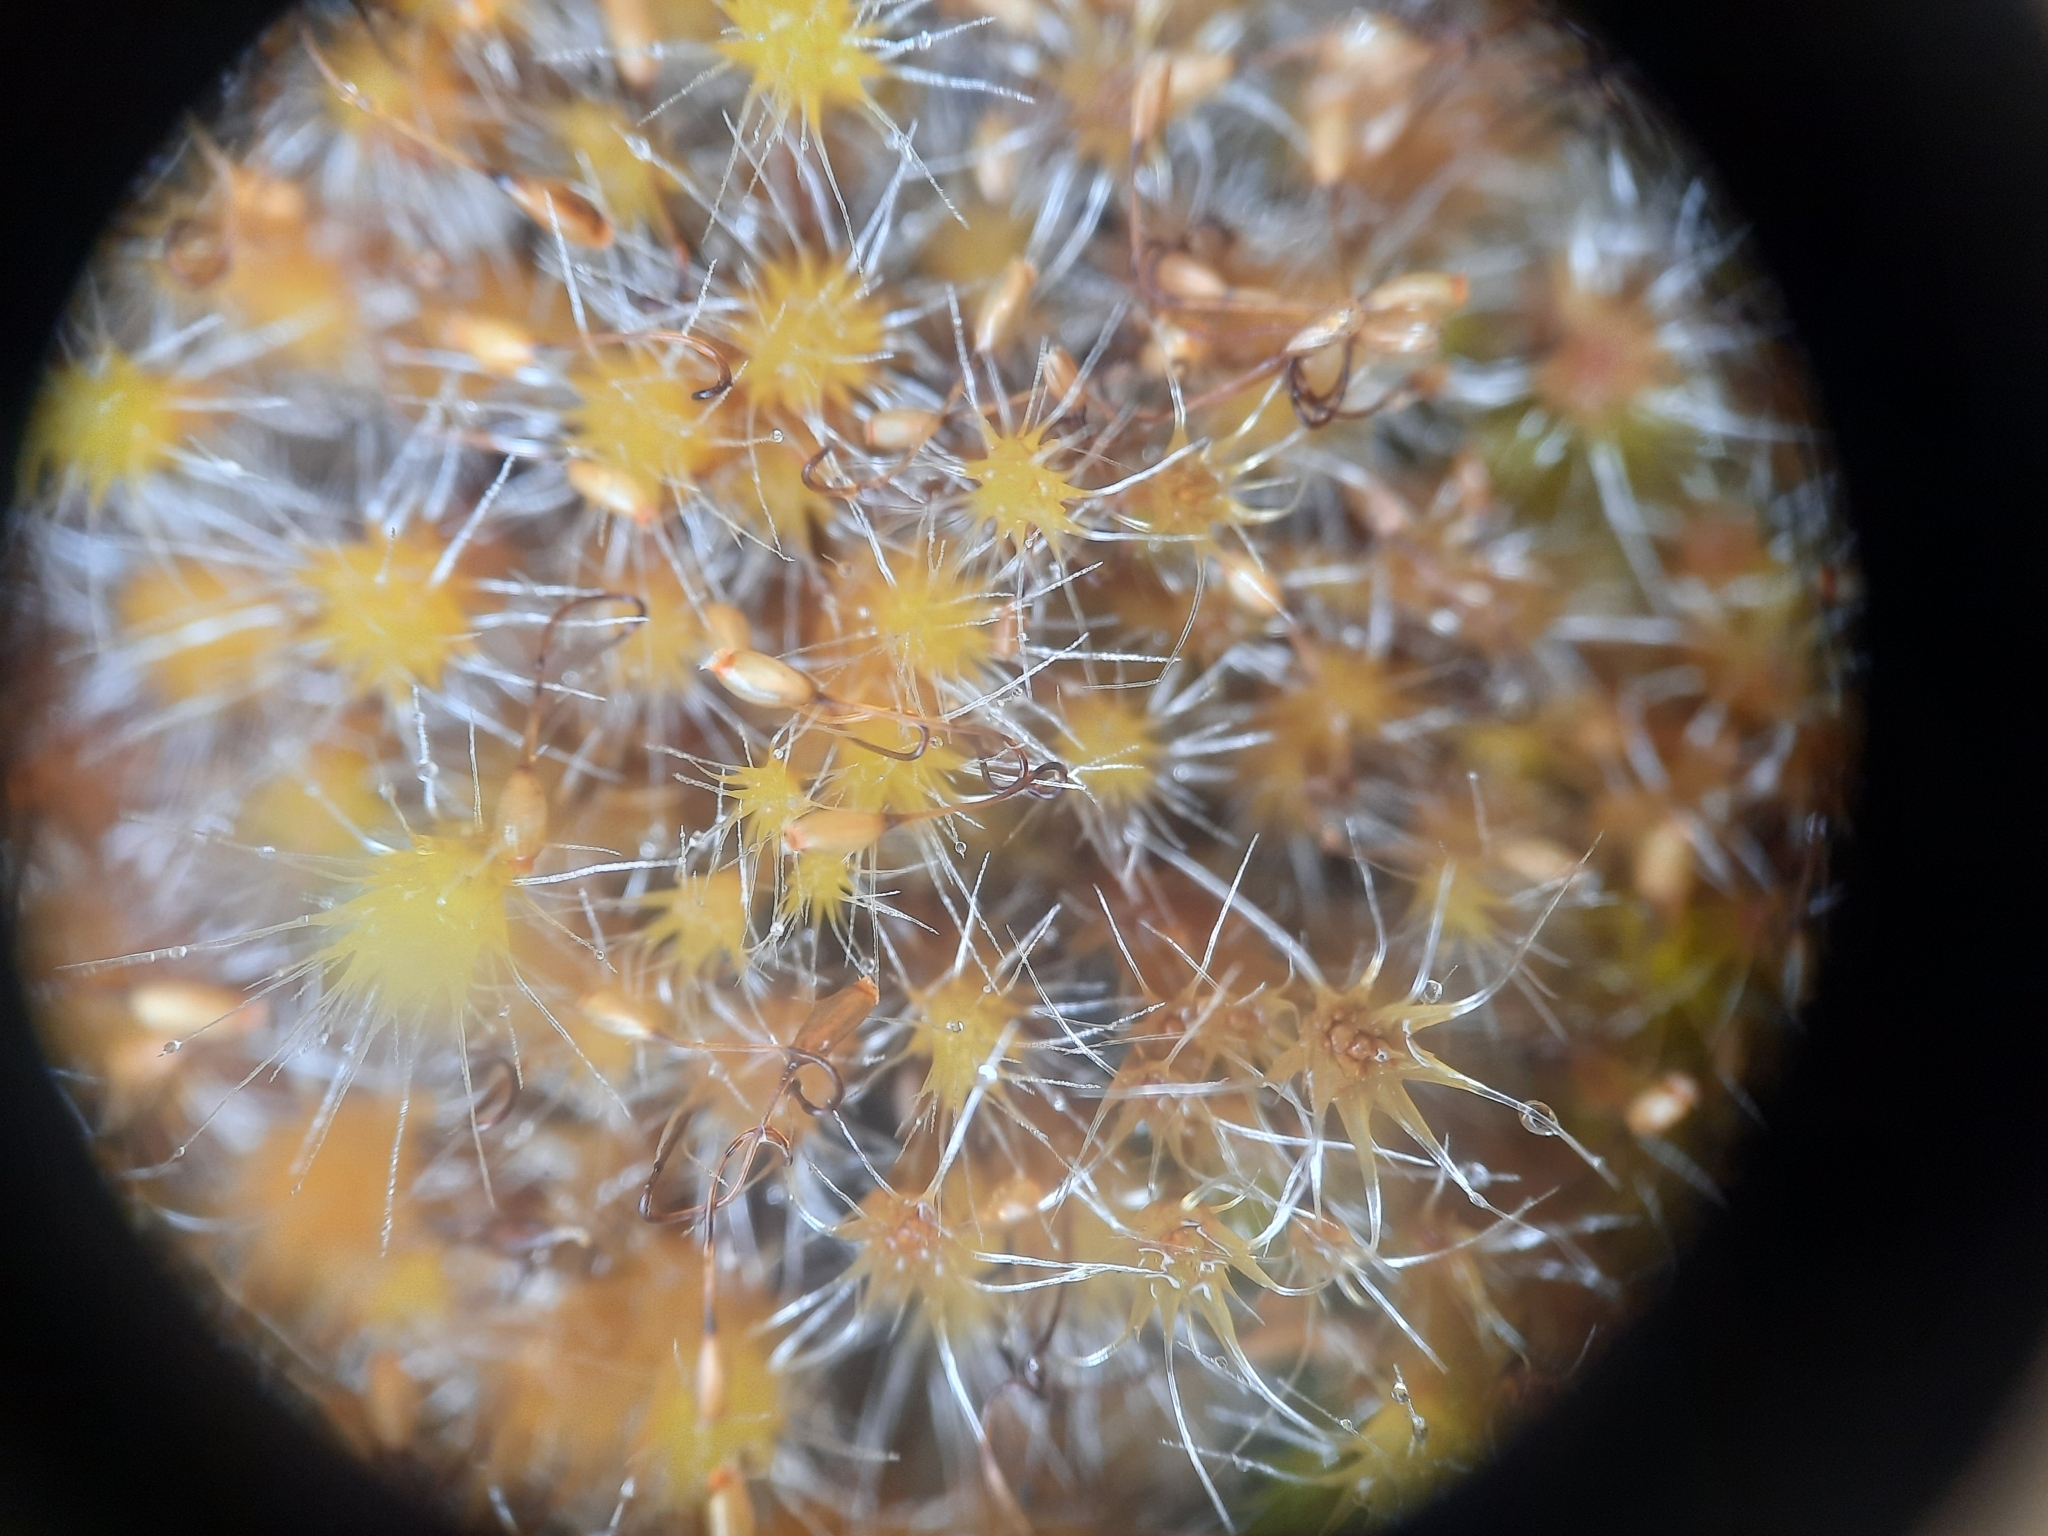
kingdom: Plantae
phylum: Bryophyta
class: Bryopsida
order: Dicranales
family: Leucobryaceae
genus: Campylopus
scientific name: Campylopus introflexus
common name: Heath star moss
